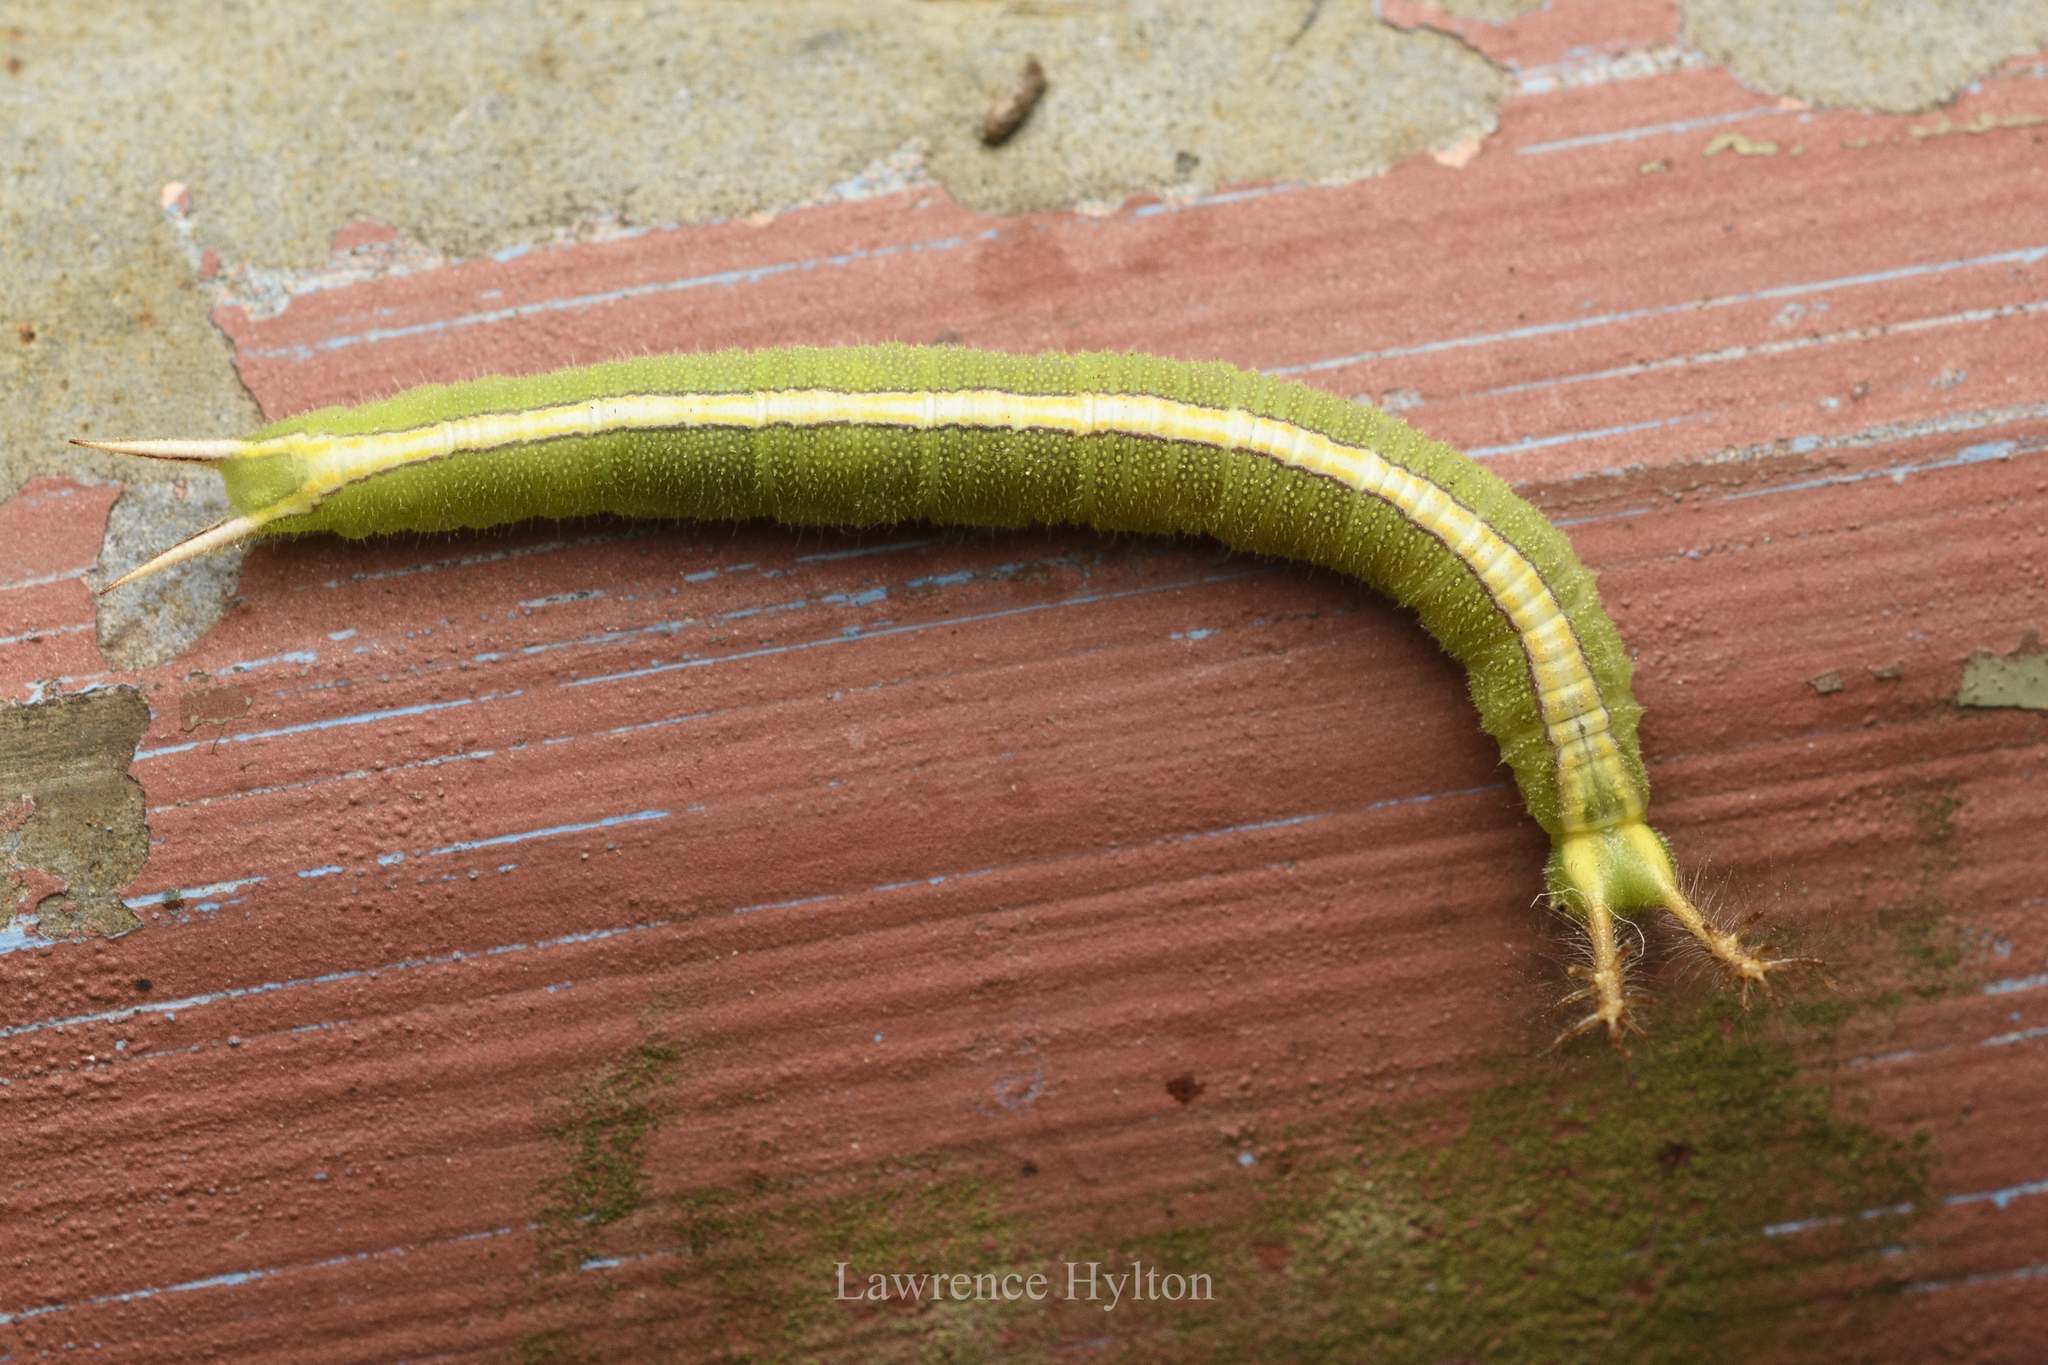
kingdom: Animalia
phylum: Arthropoda
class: Insecta
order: Lepidoptera
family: Nymphalidae
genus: Apatura
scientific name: Apatura Rohana spec
